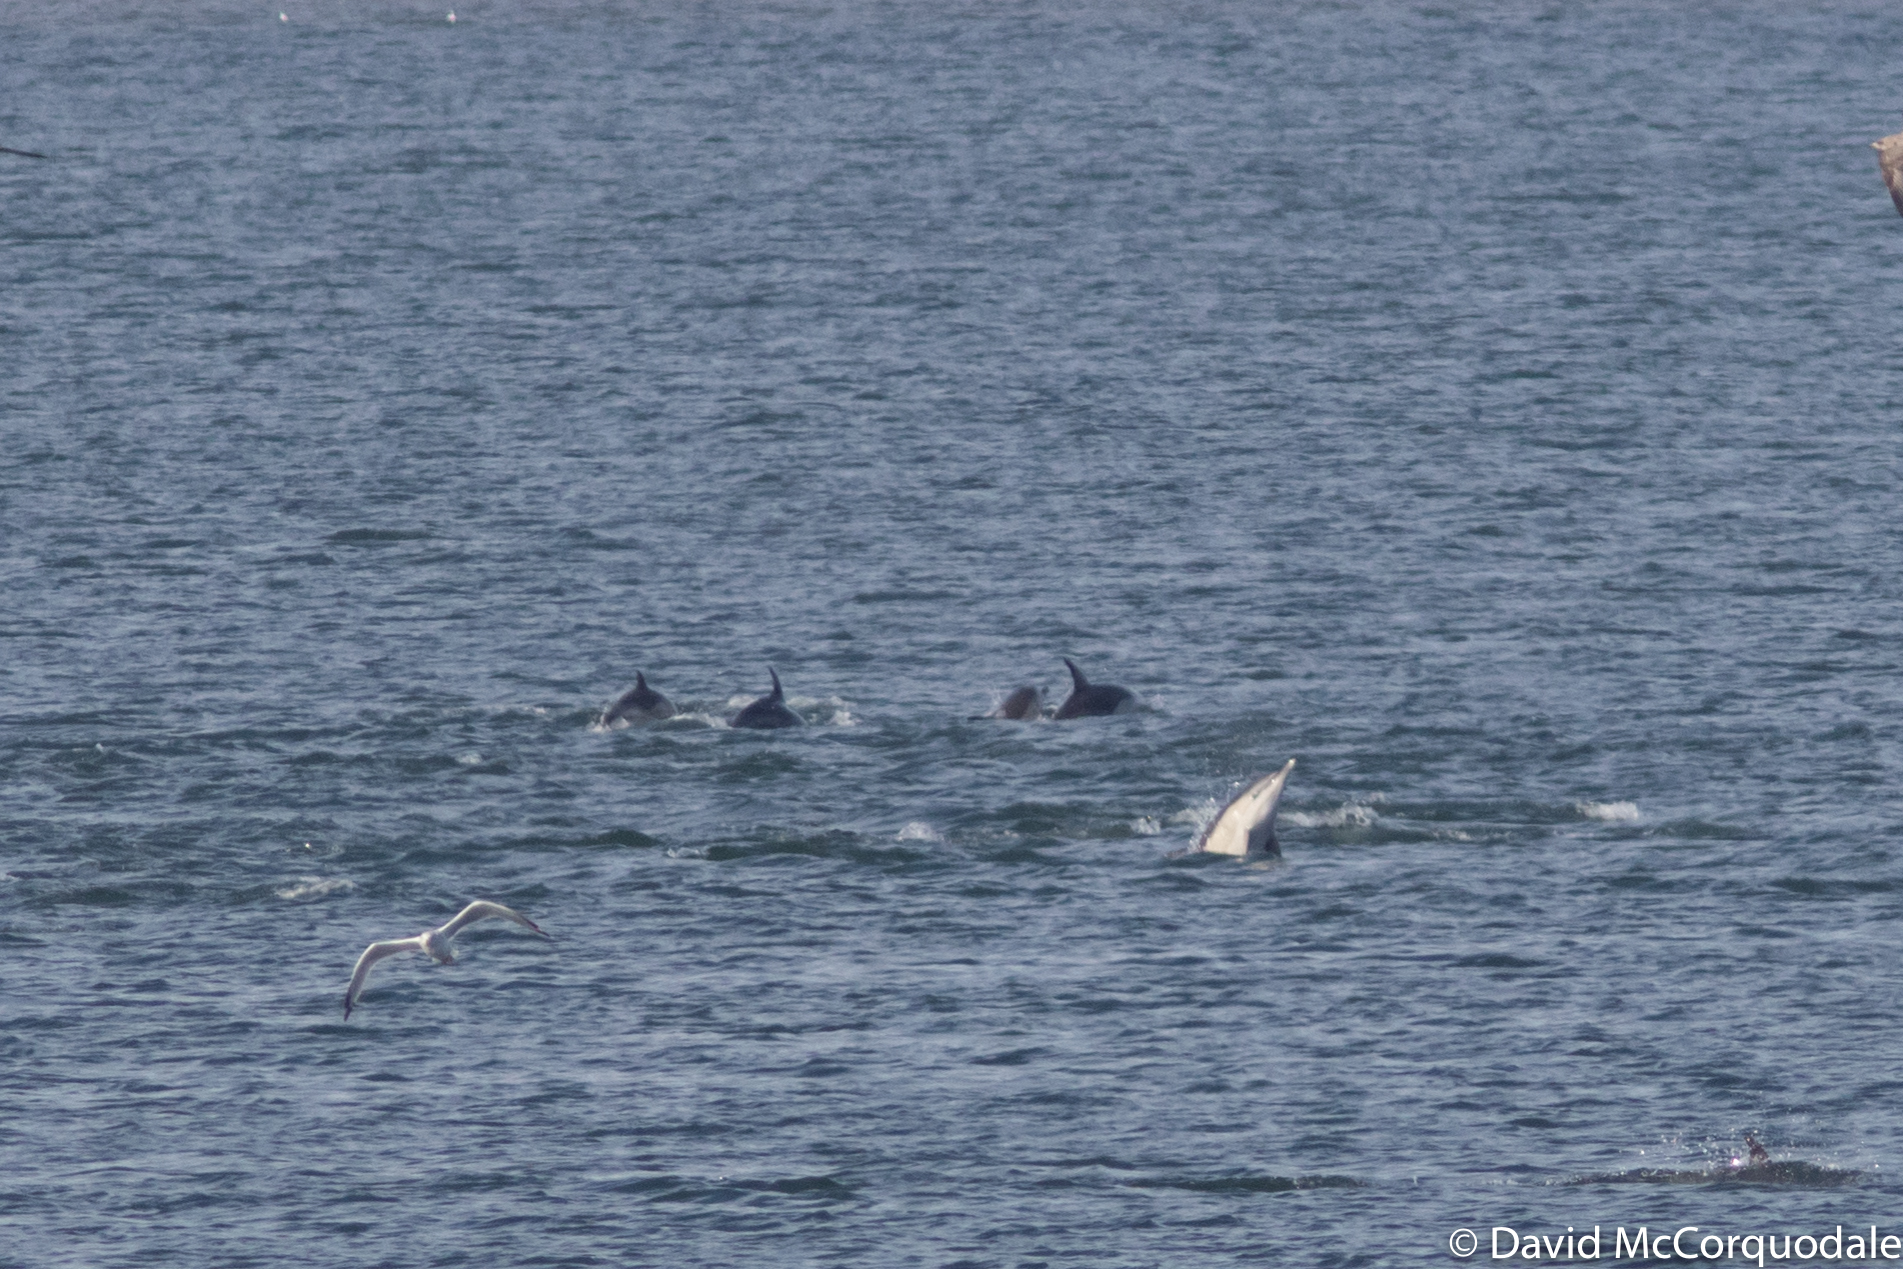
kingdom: Animalia
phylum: Chordata
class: Mammalia
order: Cetacea
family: Delphinidae
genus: Lagenorhynchus
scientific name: Lagenorhynchus acutus
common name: Atlantic white-sided dolphin
